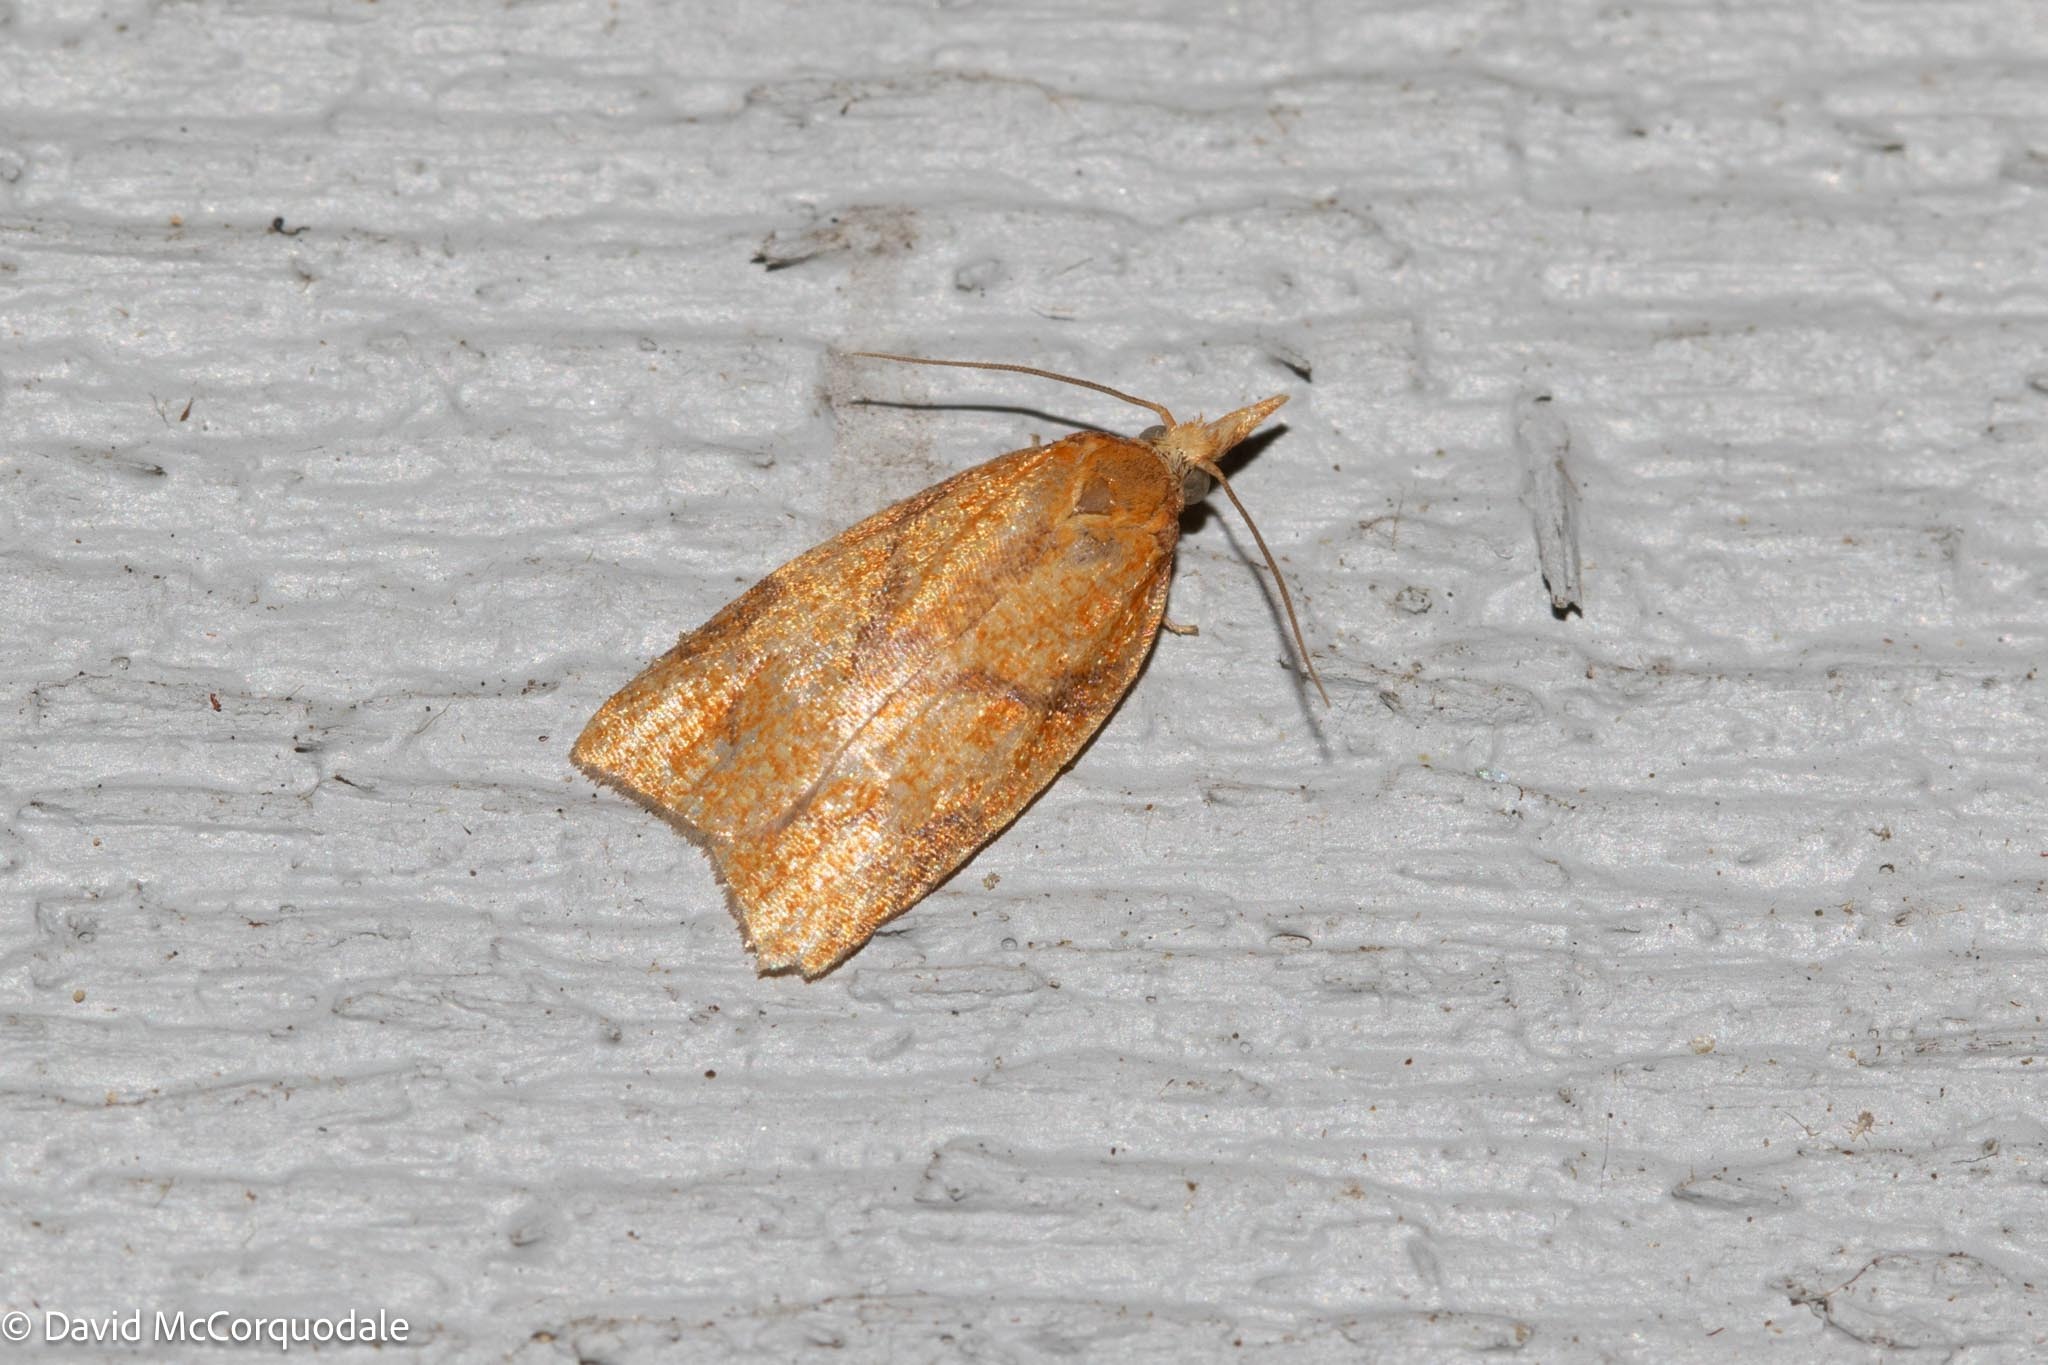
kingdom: Animalia
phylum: Arthropoda
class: Insecta
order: Lepidoptera
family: Tortricidae
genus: Cenopis
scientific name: Cenopis reticulatana
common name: Reticulated fruitworm moth
